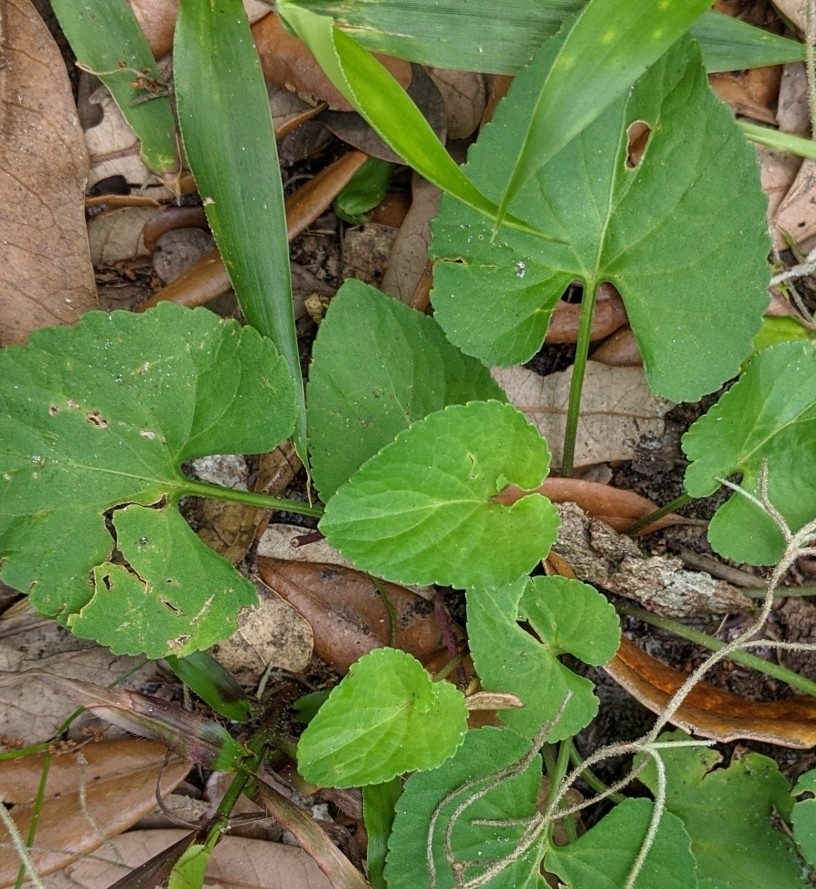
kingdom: Plantae
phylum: Tracheophyta
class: Magnoliopsida
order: Malpighiales
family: Violaceae
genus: Viola
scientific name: Viola sororia
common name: Dooryard violet
